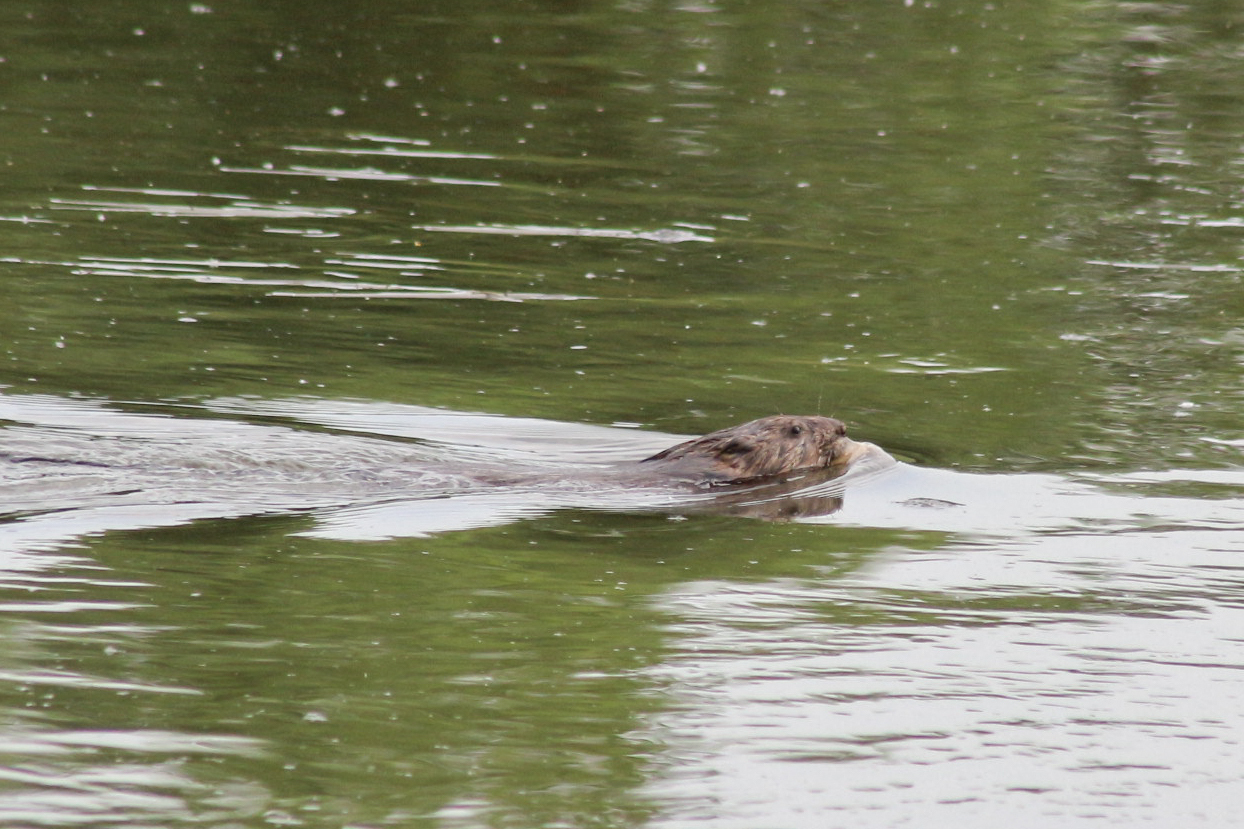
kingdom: Animalia
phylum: Chordata
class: Mammalia
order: Rodentia
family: Cricetidae
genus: Ondatra
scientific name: Ondatra zibethicus
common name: Muskrat
